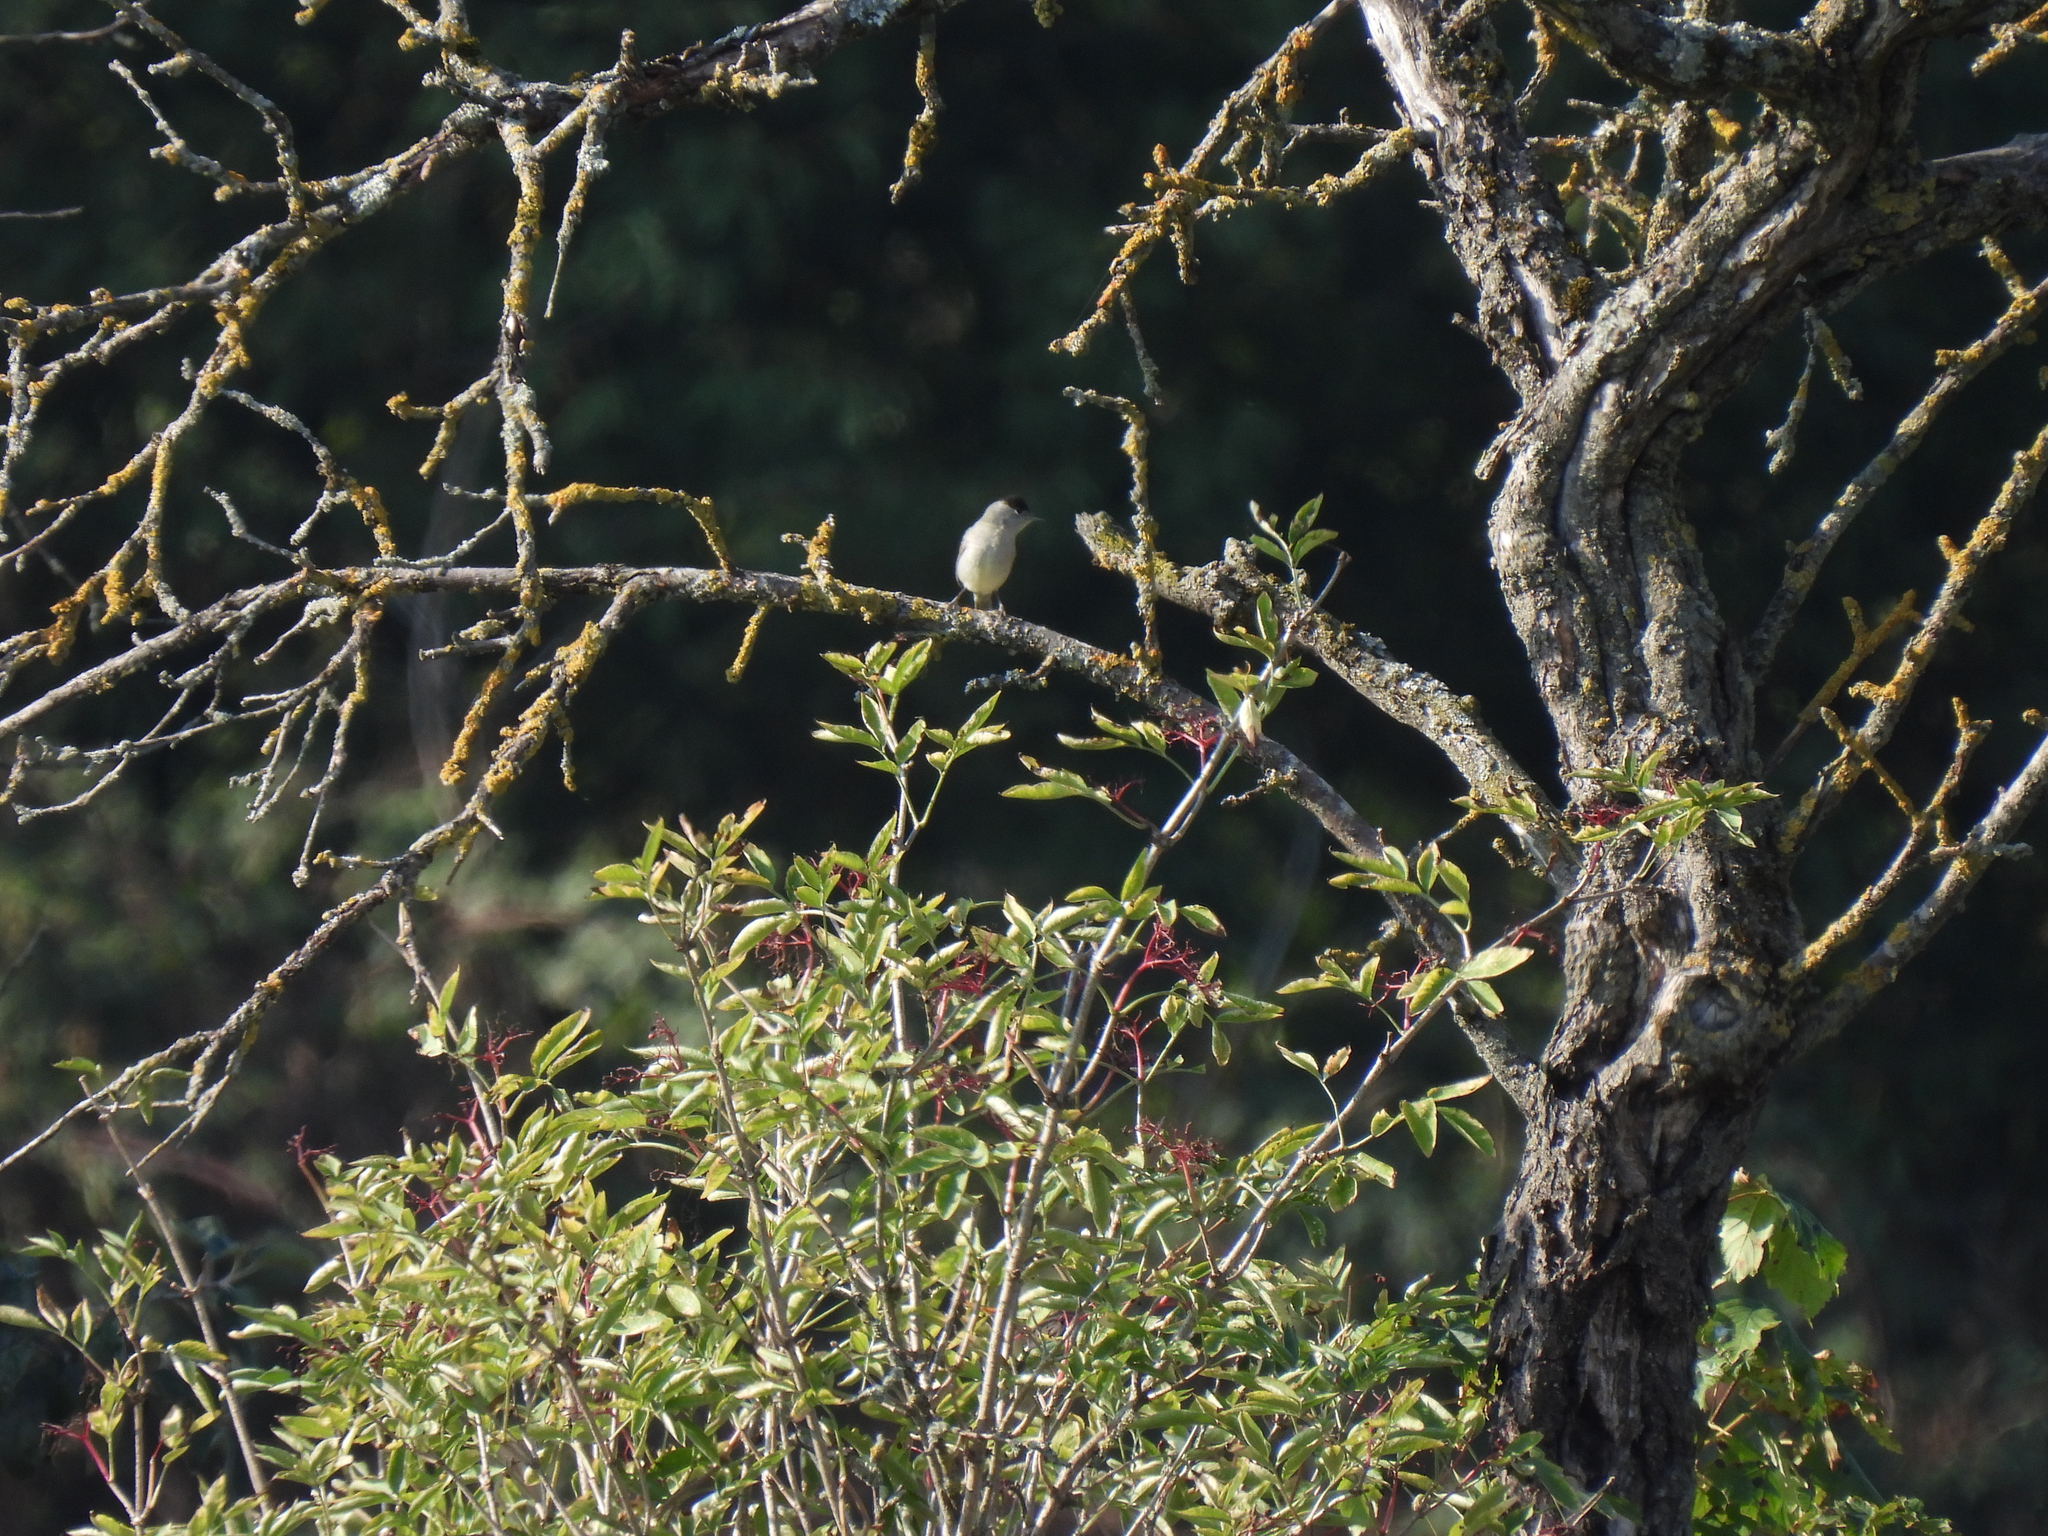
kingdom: Animalia
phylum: Chordata
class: Aves
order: Passeriformes
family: Sylviidae
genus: Sylvia
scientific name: Sylvia atricapilla
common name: Eurasian blackcap
